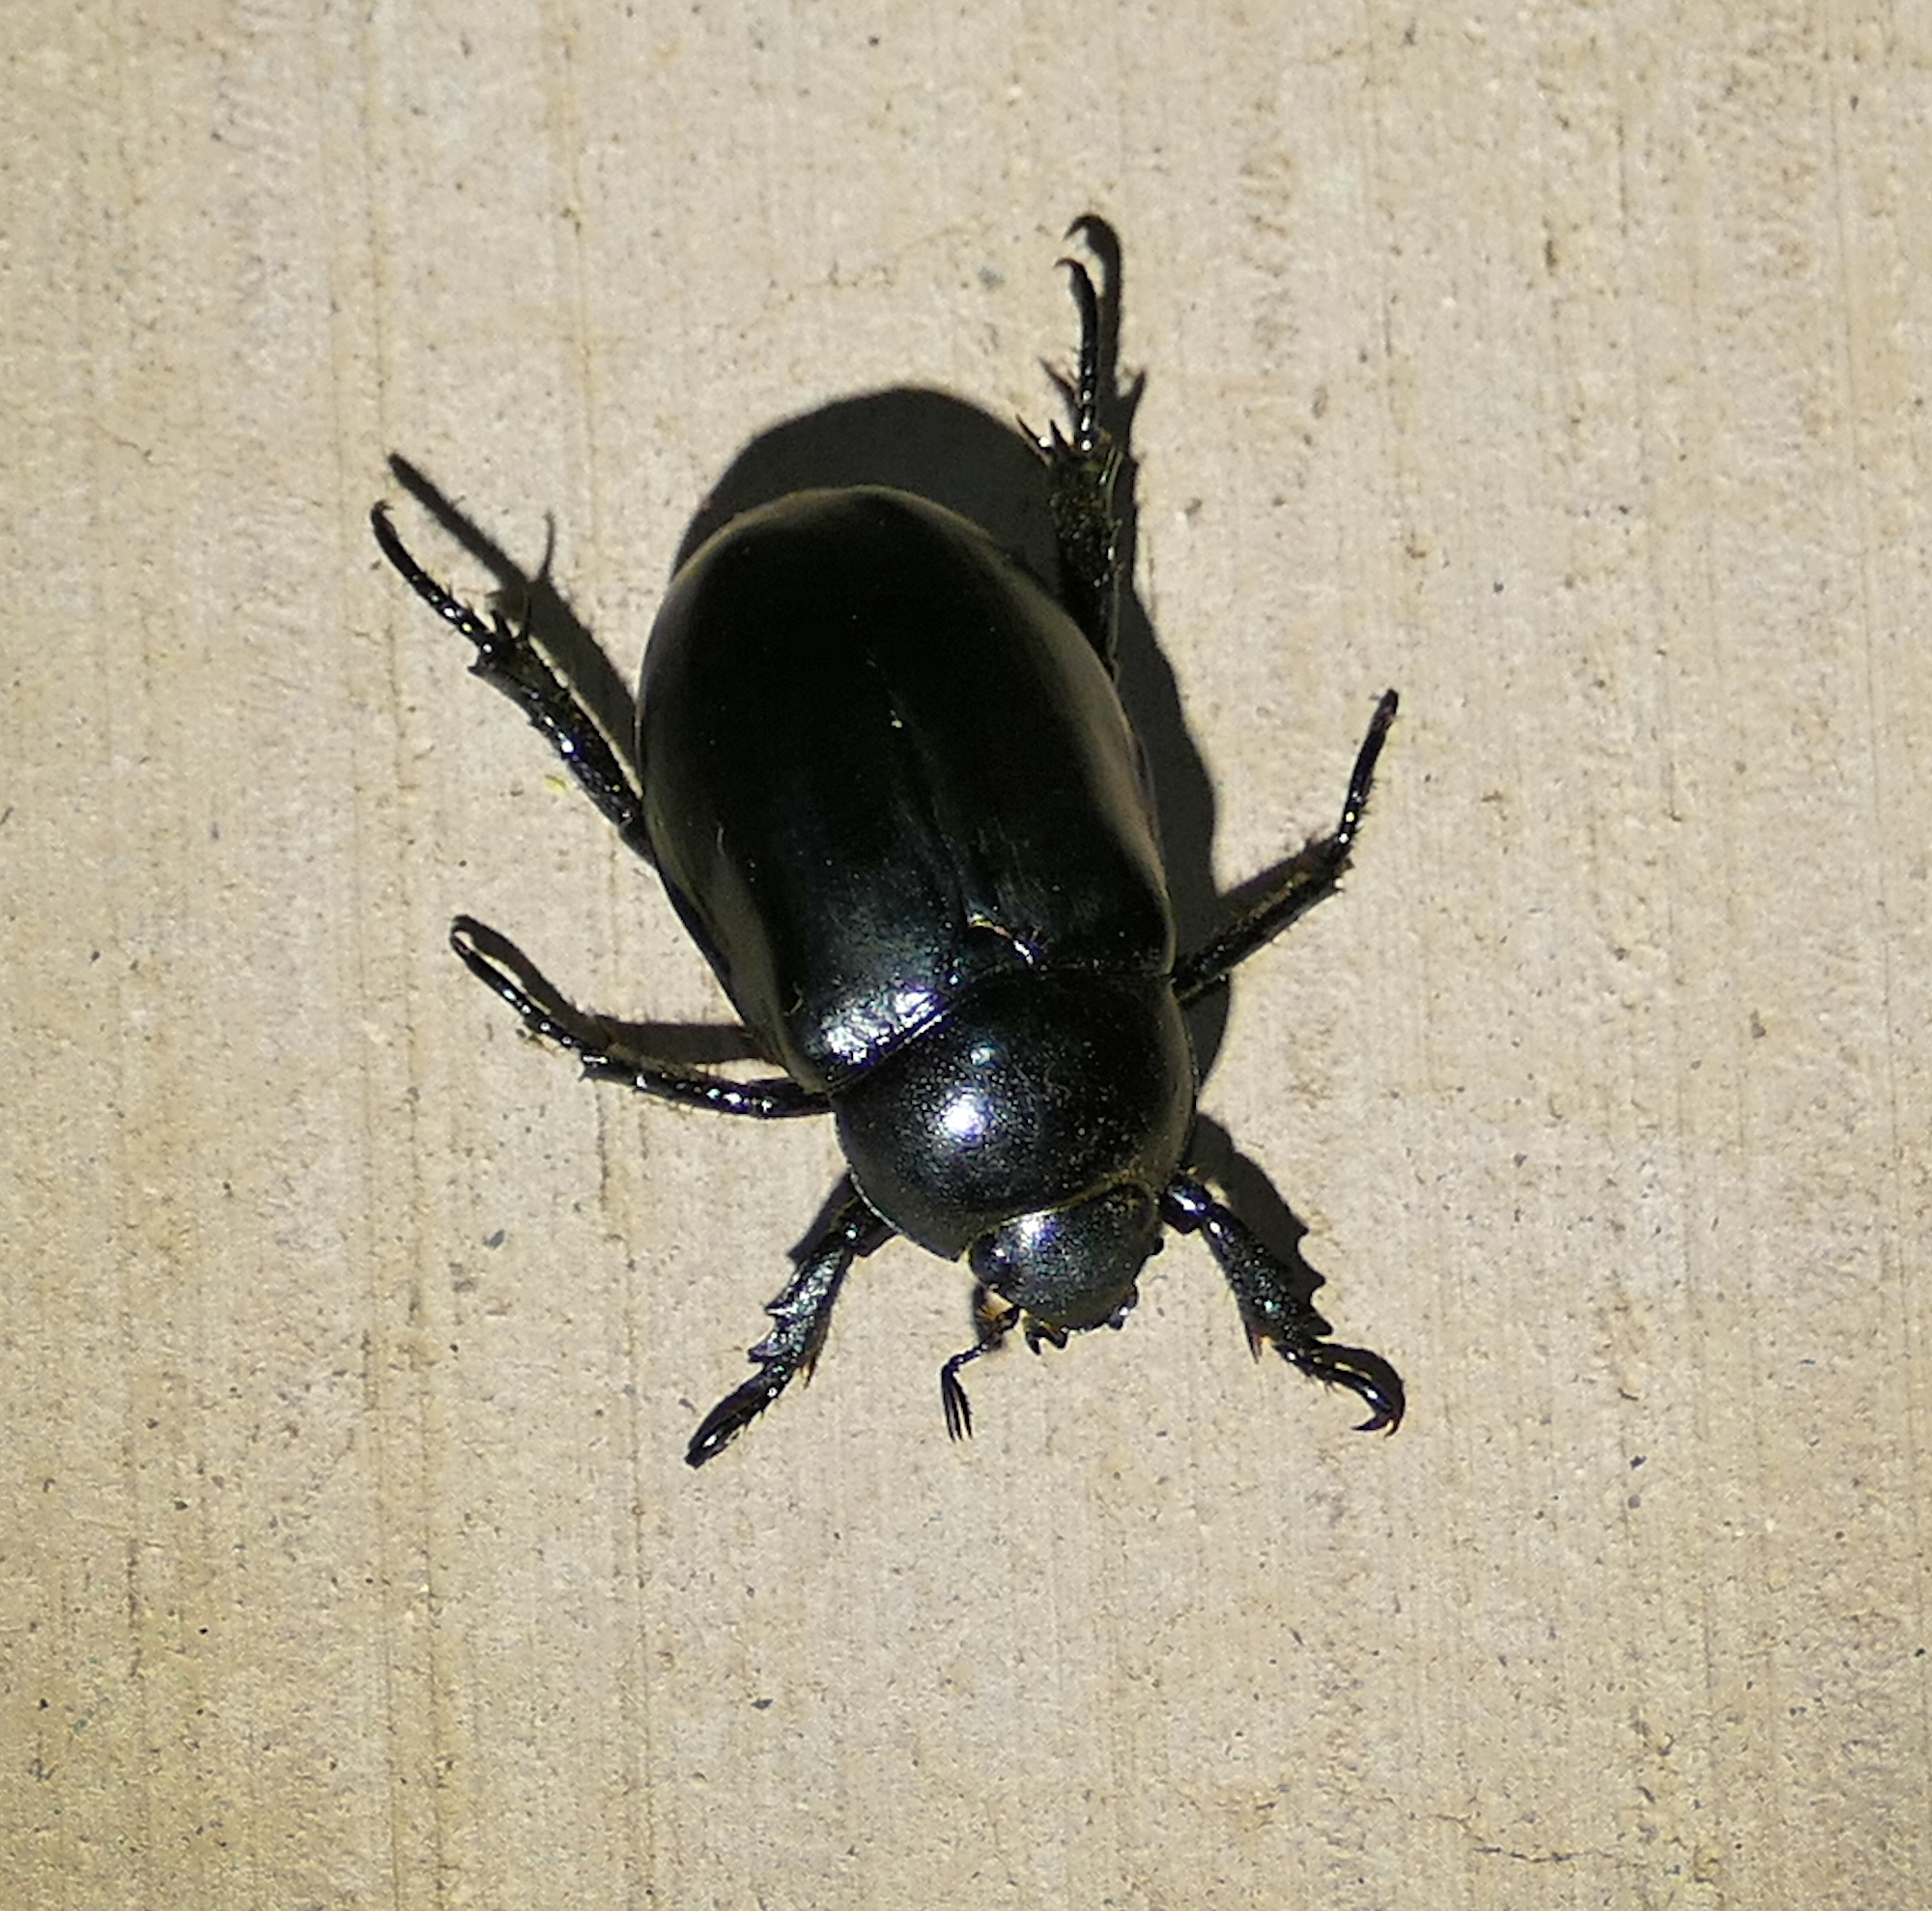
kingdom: Animalia
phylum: Arthropoda
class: Insecta
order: Coleoptera
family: Scarabaeidae
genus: Pelidnota
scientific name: Pelidnota lugubris
